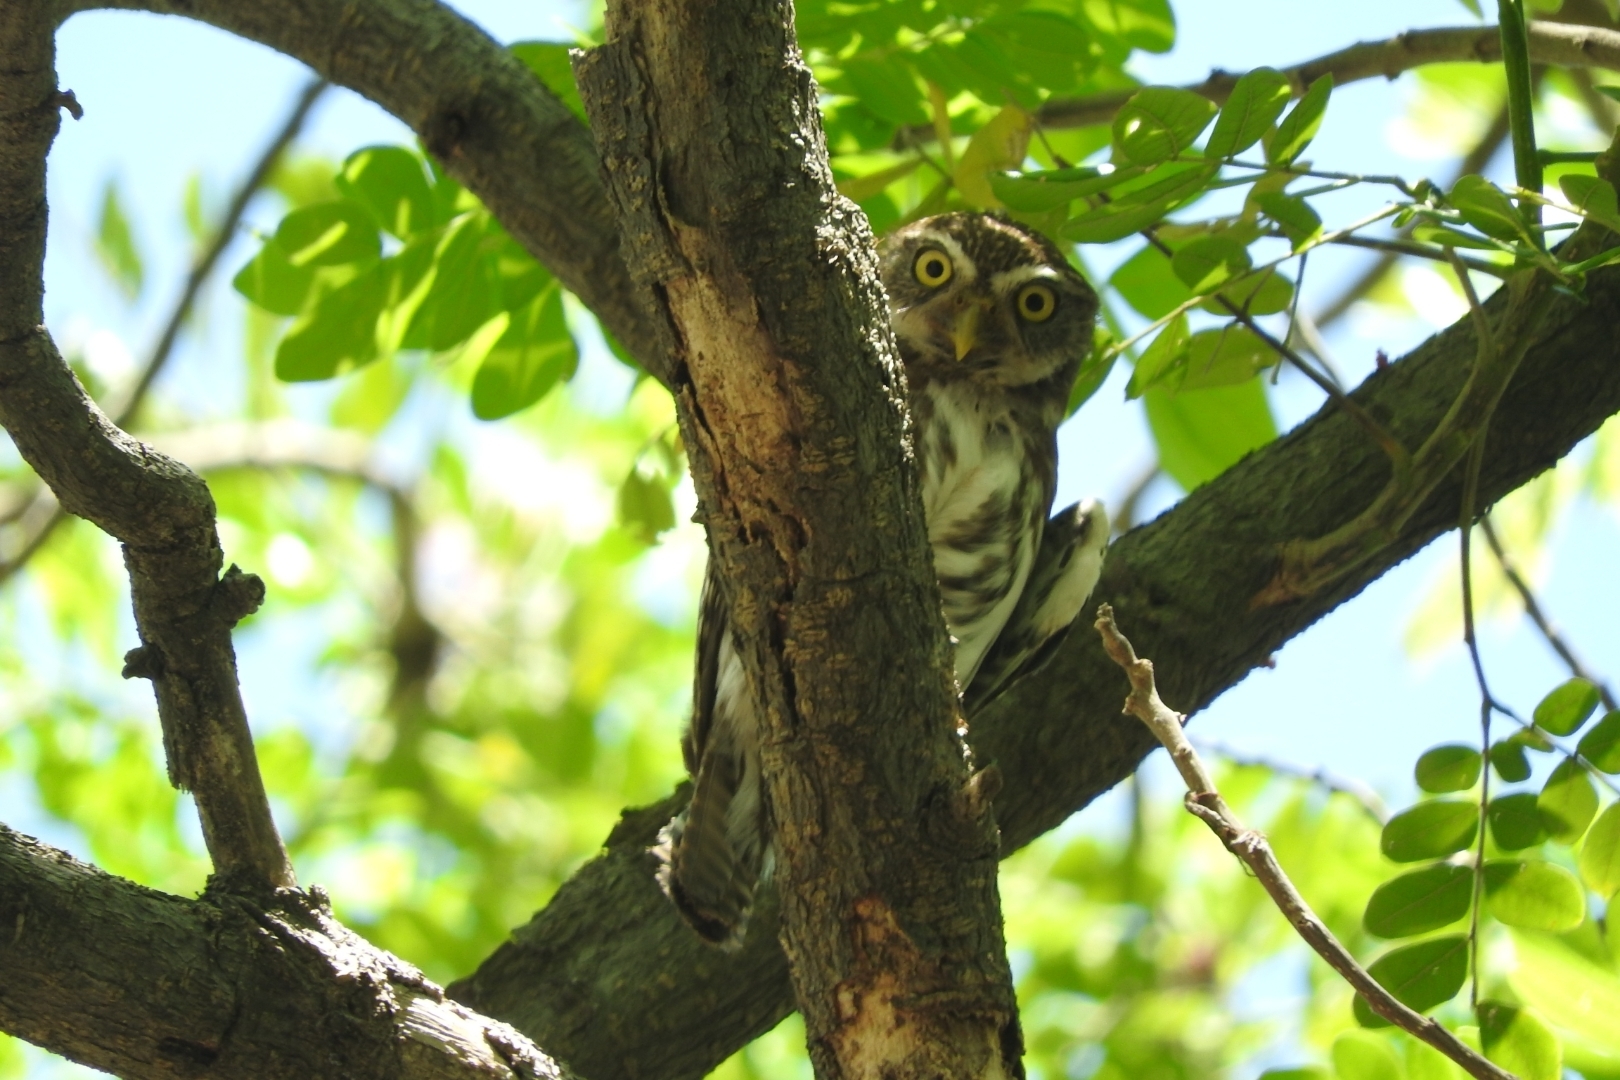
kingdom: Animalia
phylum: Chordata
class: Aves
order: Strigiformes
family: Strigidae
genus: Glaucidium
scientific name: Glaucidium brasilianum
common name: Ferruginous pygmy-owl
